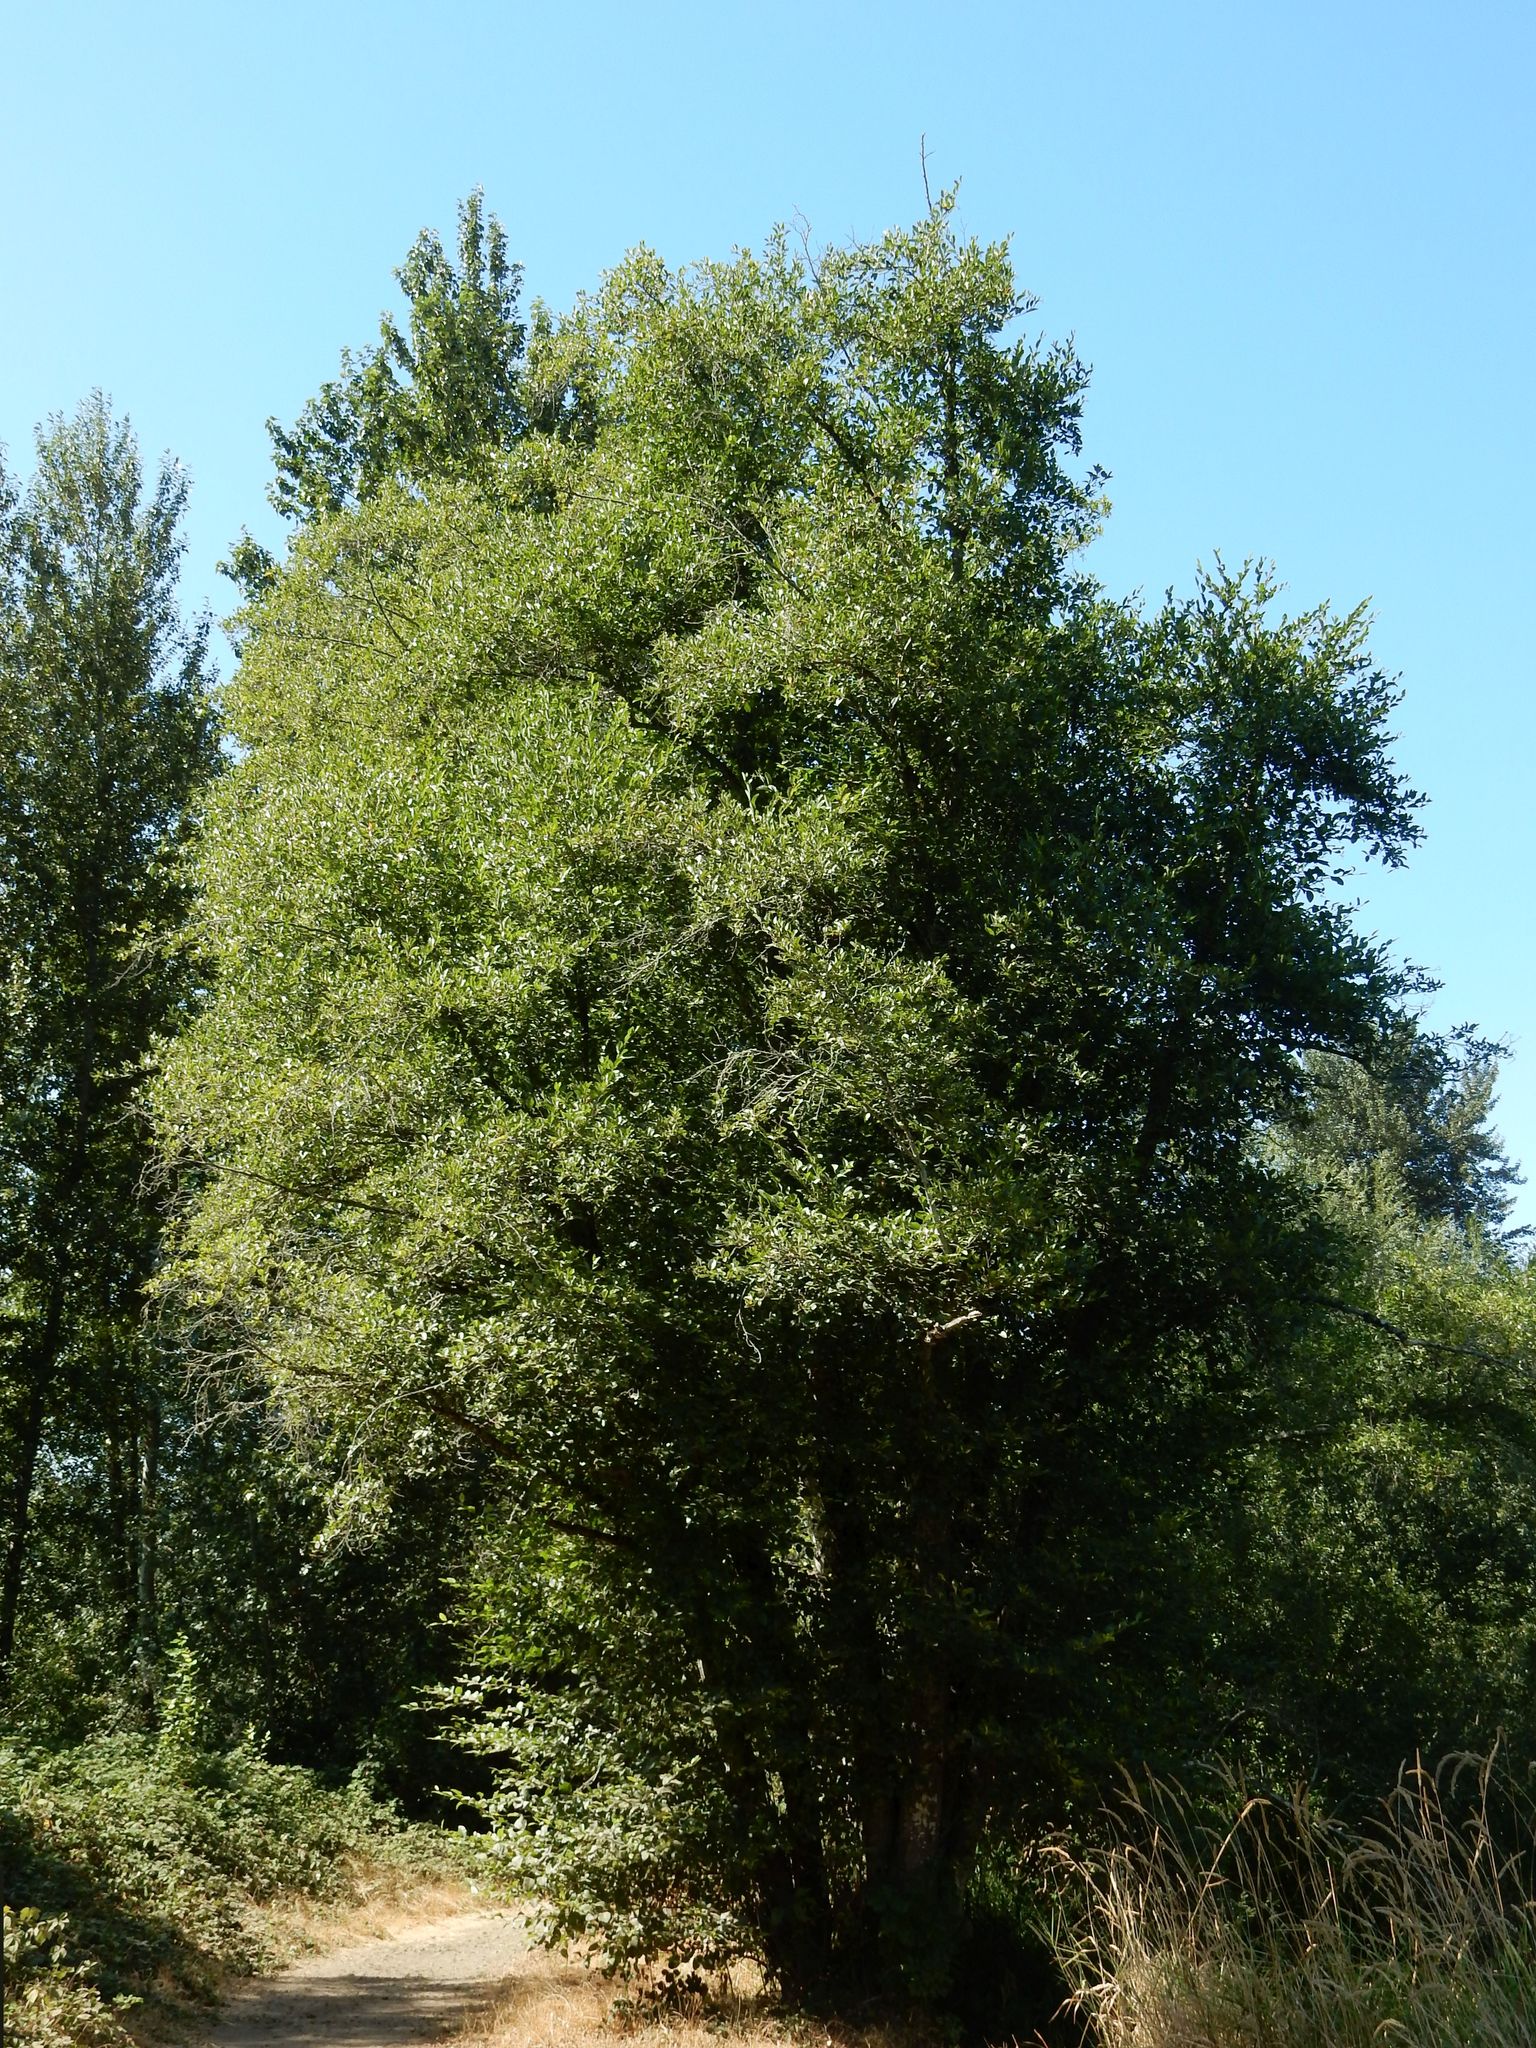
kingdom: Plantae
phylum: Tracheophyta
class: Magnoliopsida
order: Fagales
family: Betulaceae
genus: Alnus
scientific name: Alnus rhombifolia
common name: California alder
